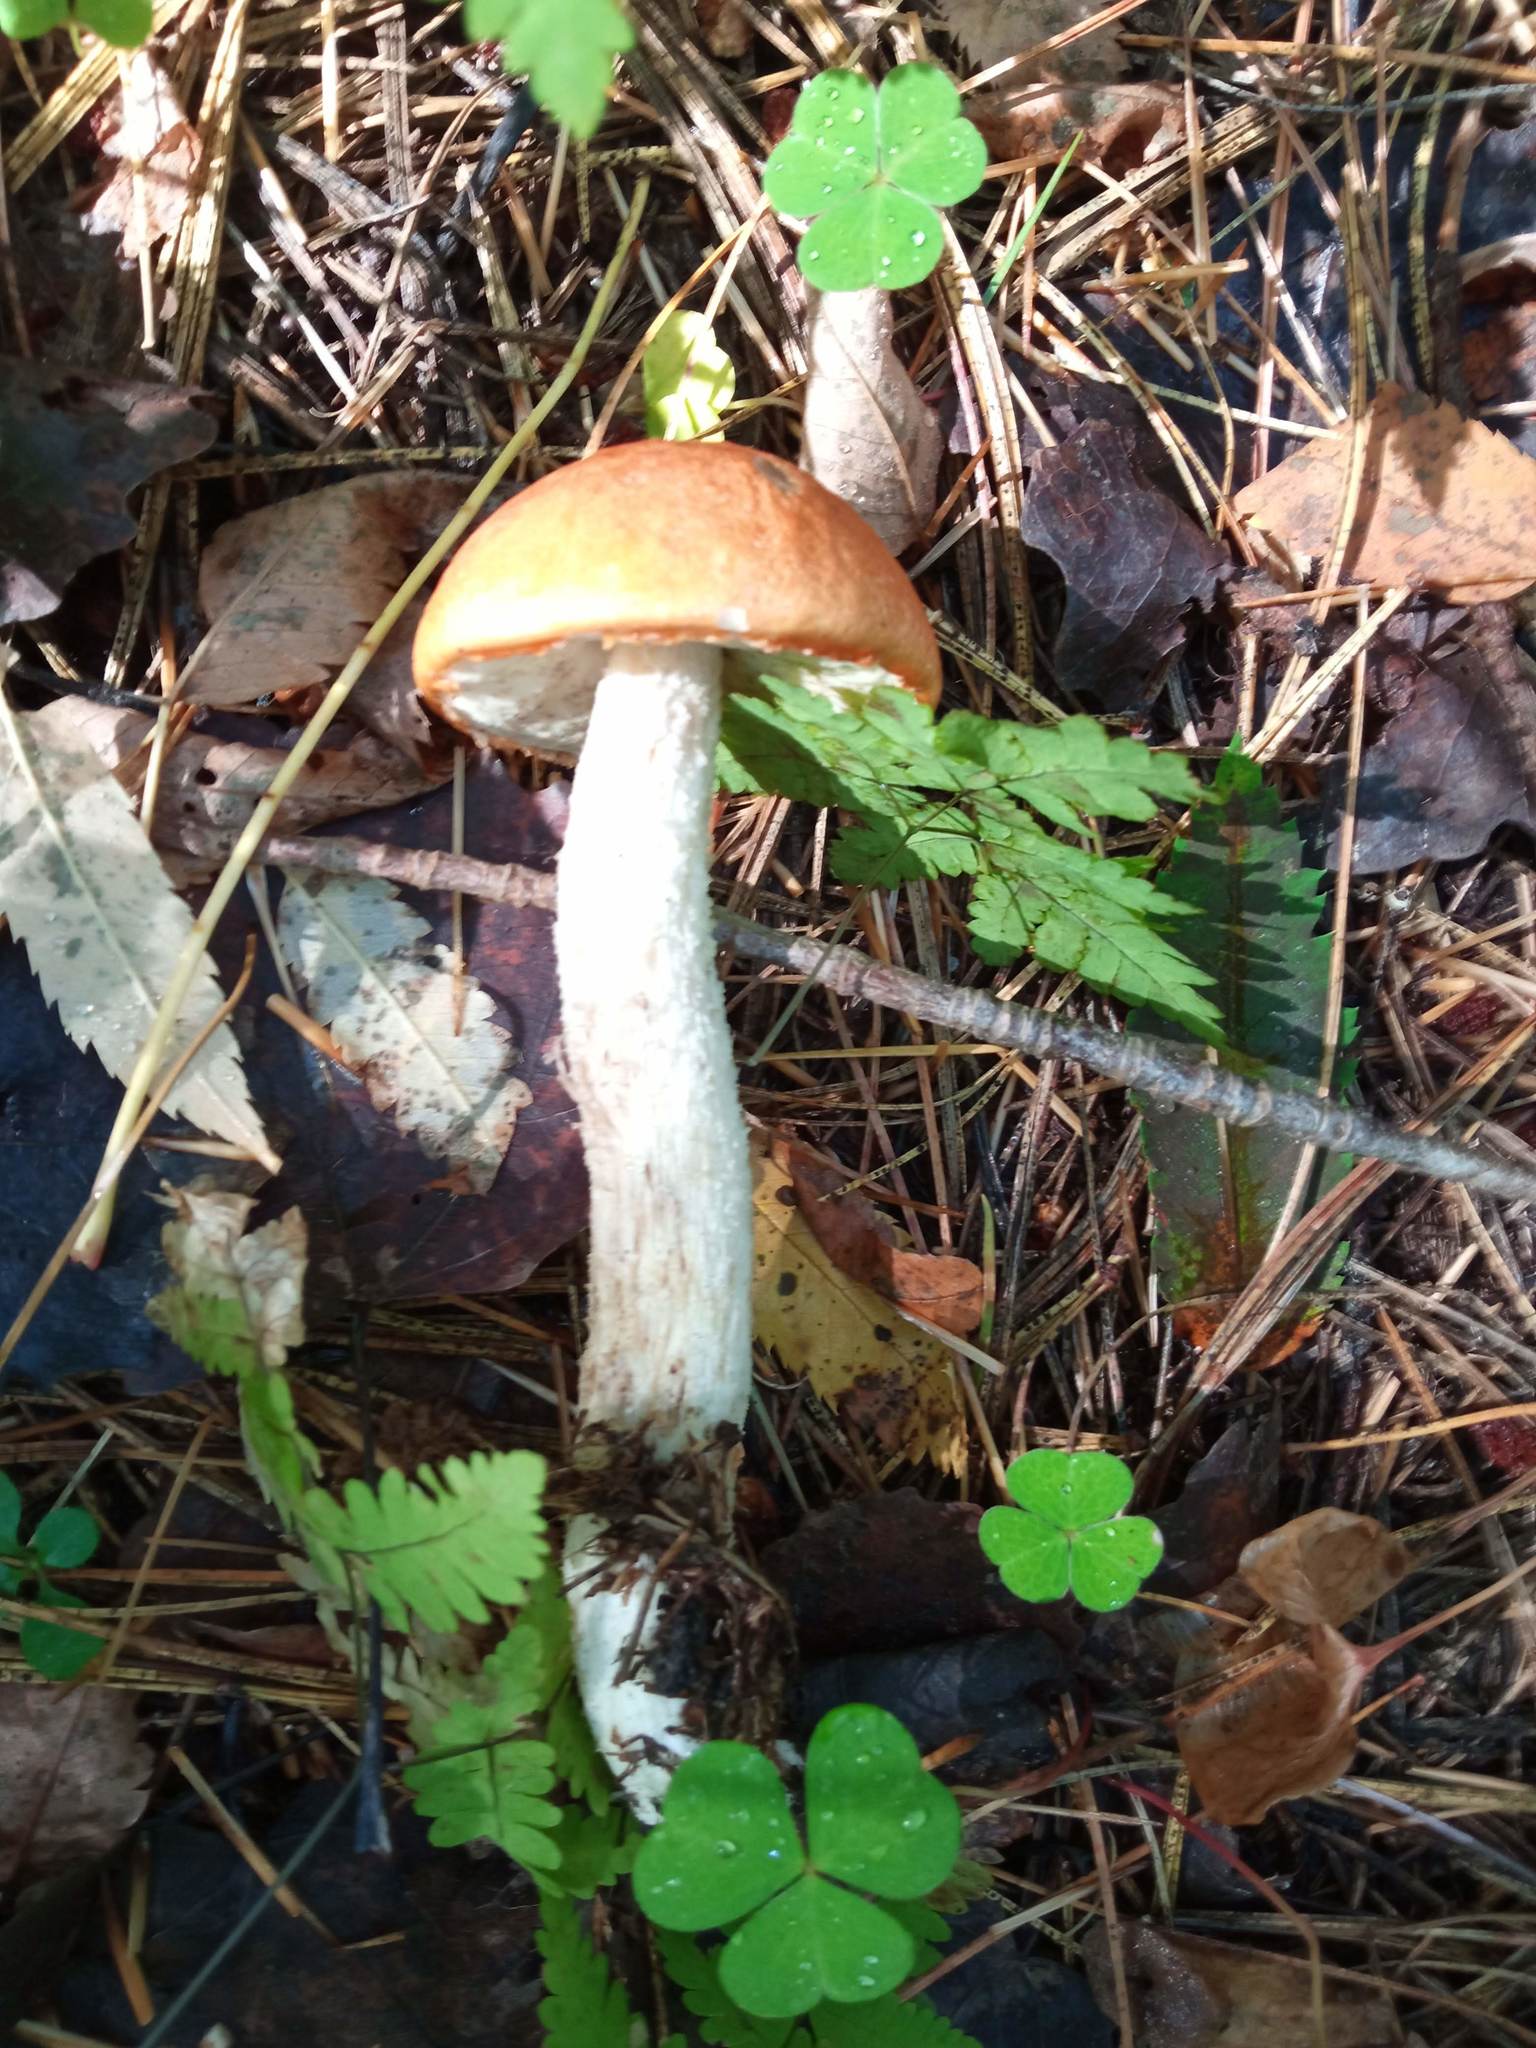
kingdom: Fungi
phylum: Basidiomycota
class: Agaricomycetes
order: Boletales
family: Boletaceae
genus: Leccinum
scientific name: Leccinum albostipitatum
